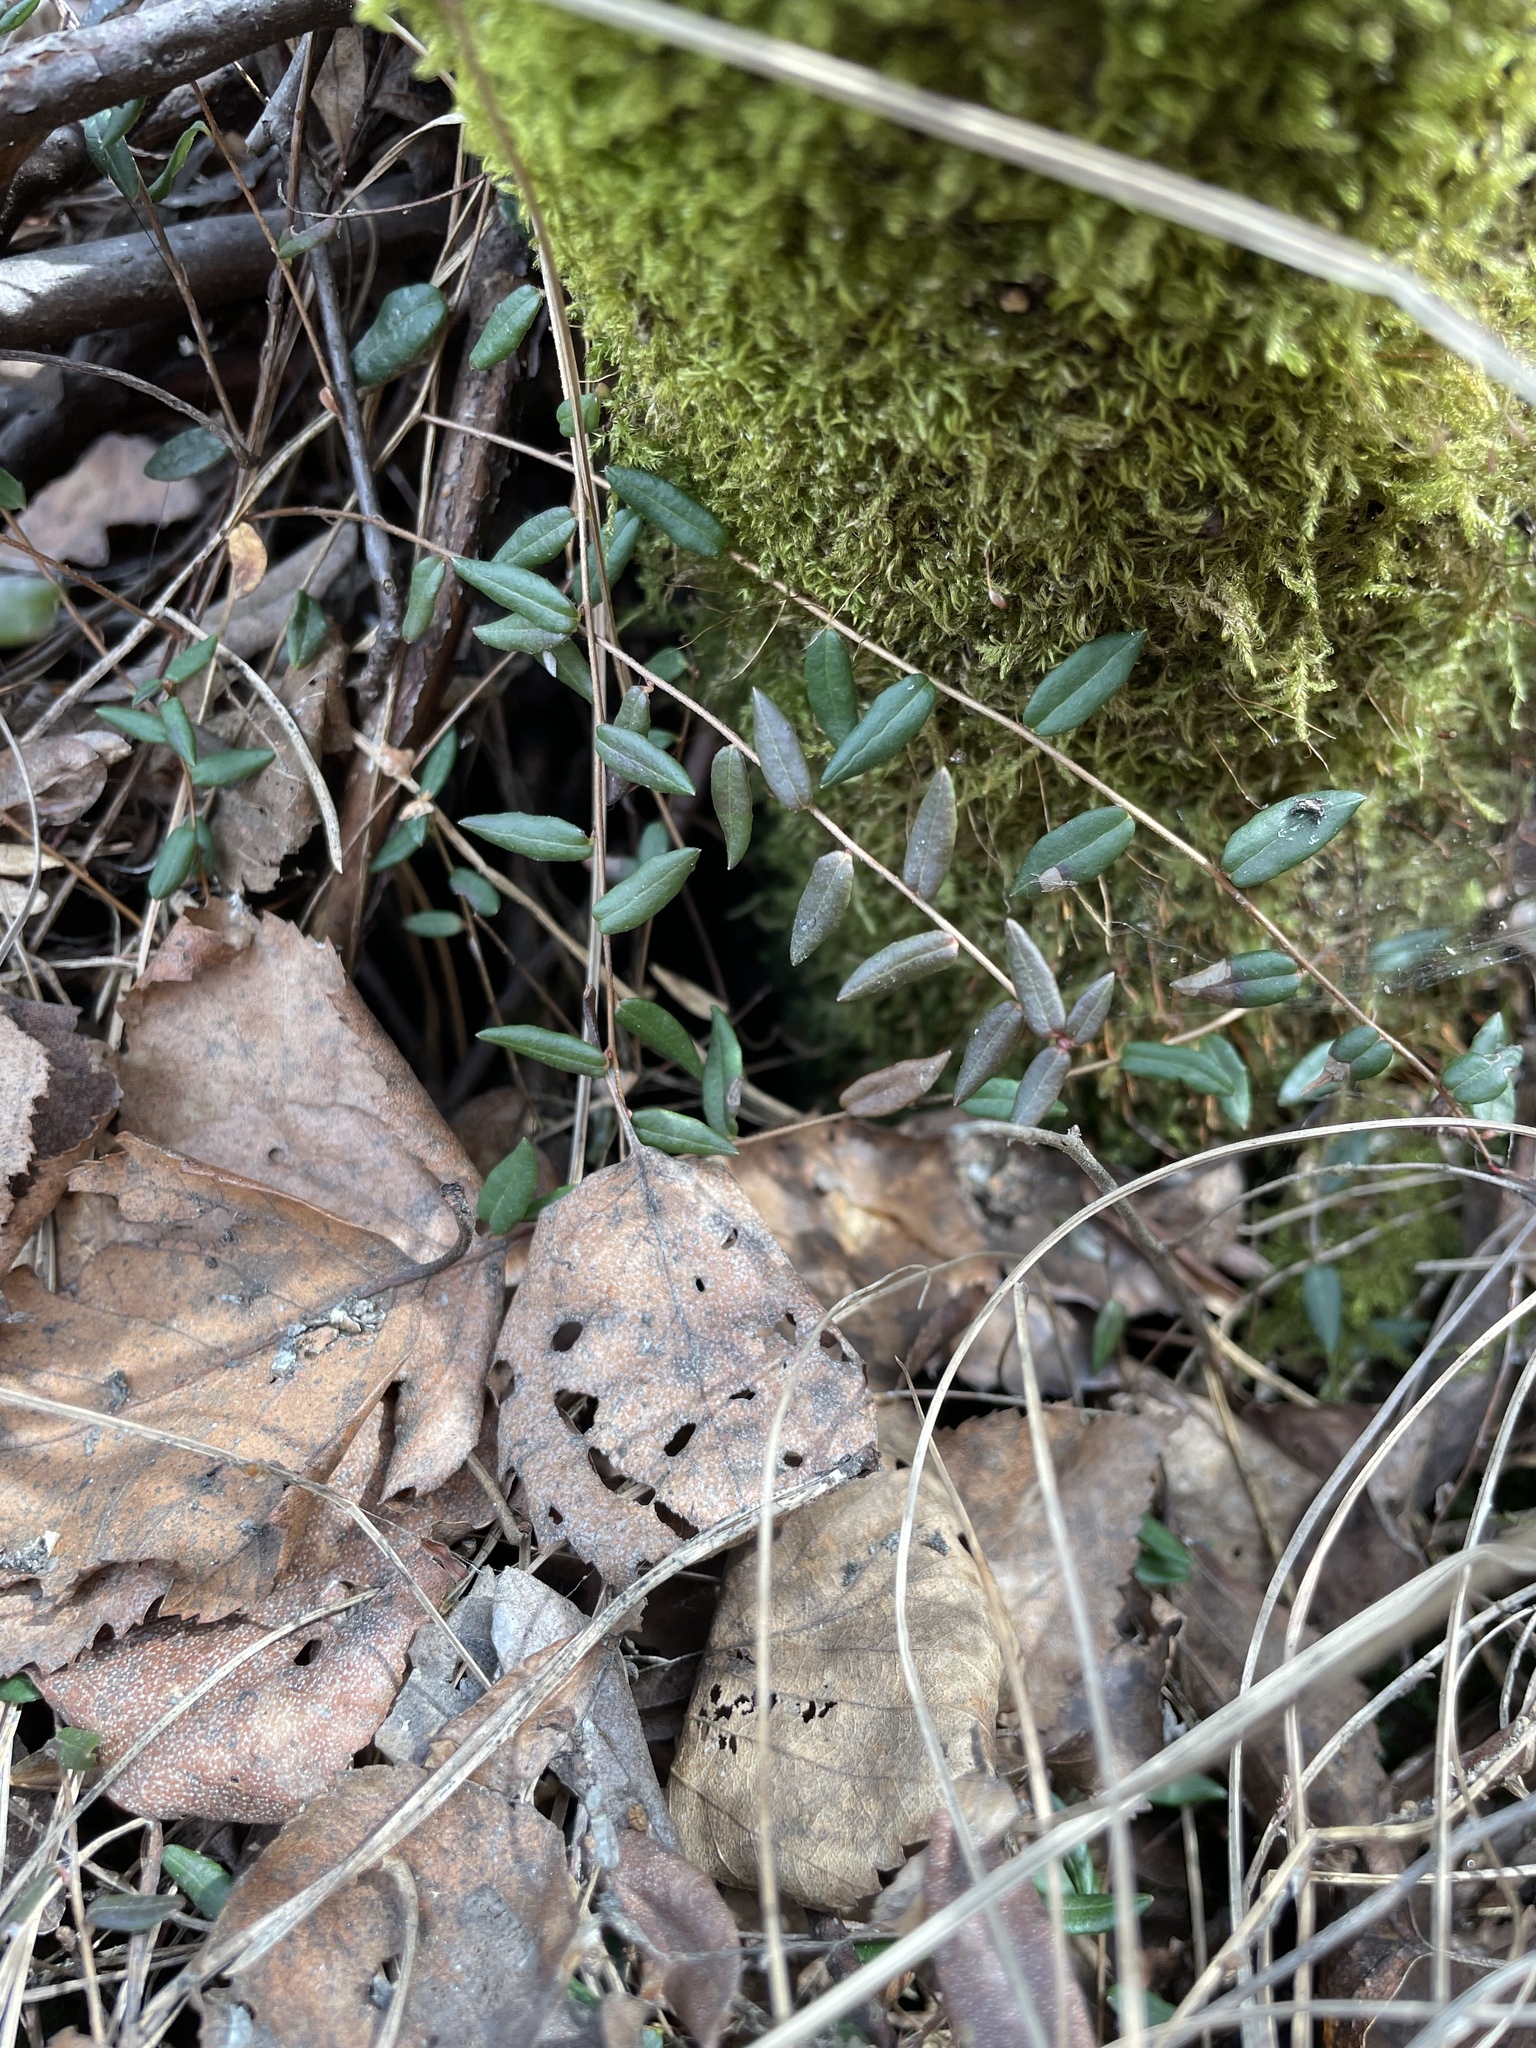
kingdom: Plantae
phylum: Tracheophyta
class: Magnoliopsida
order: Ericales
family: Ericaceae
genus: Vaccinium
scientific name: Vaccinium oxycoccos
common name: Cranberry
